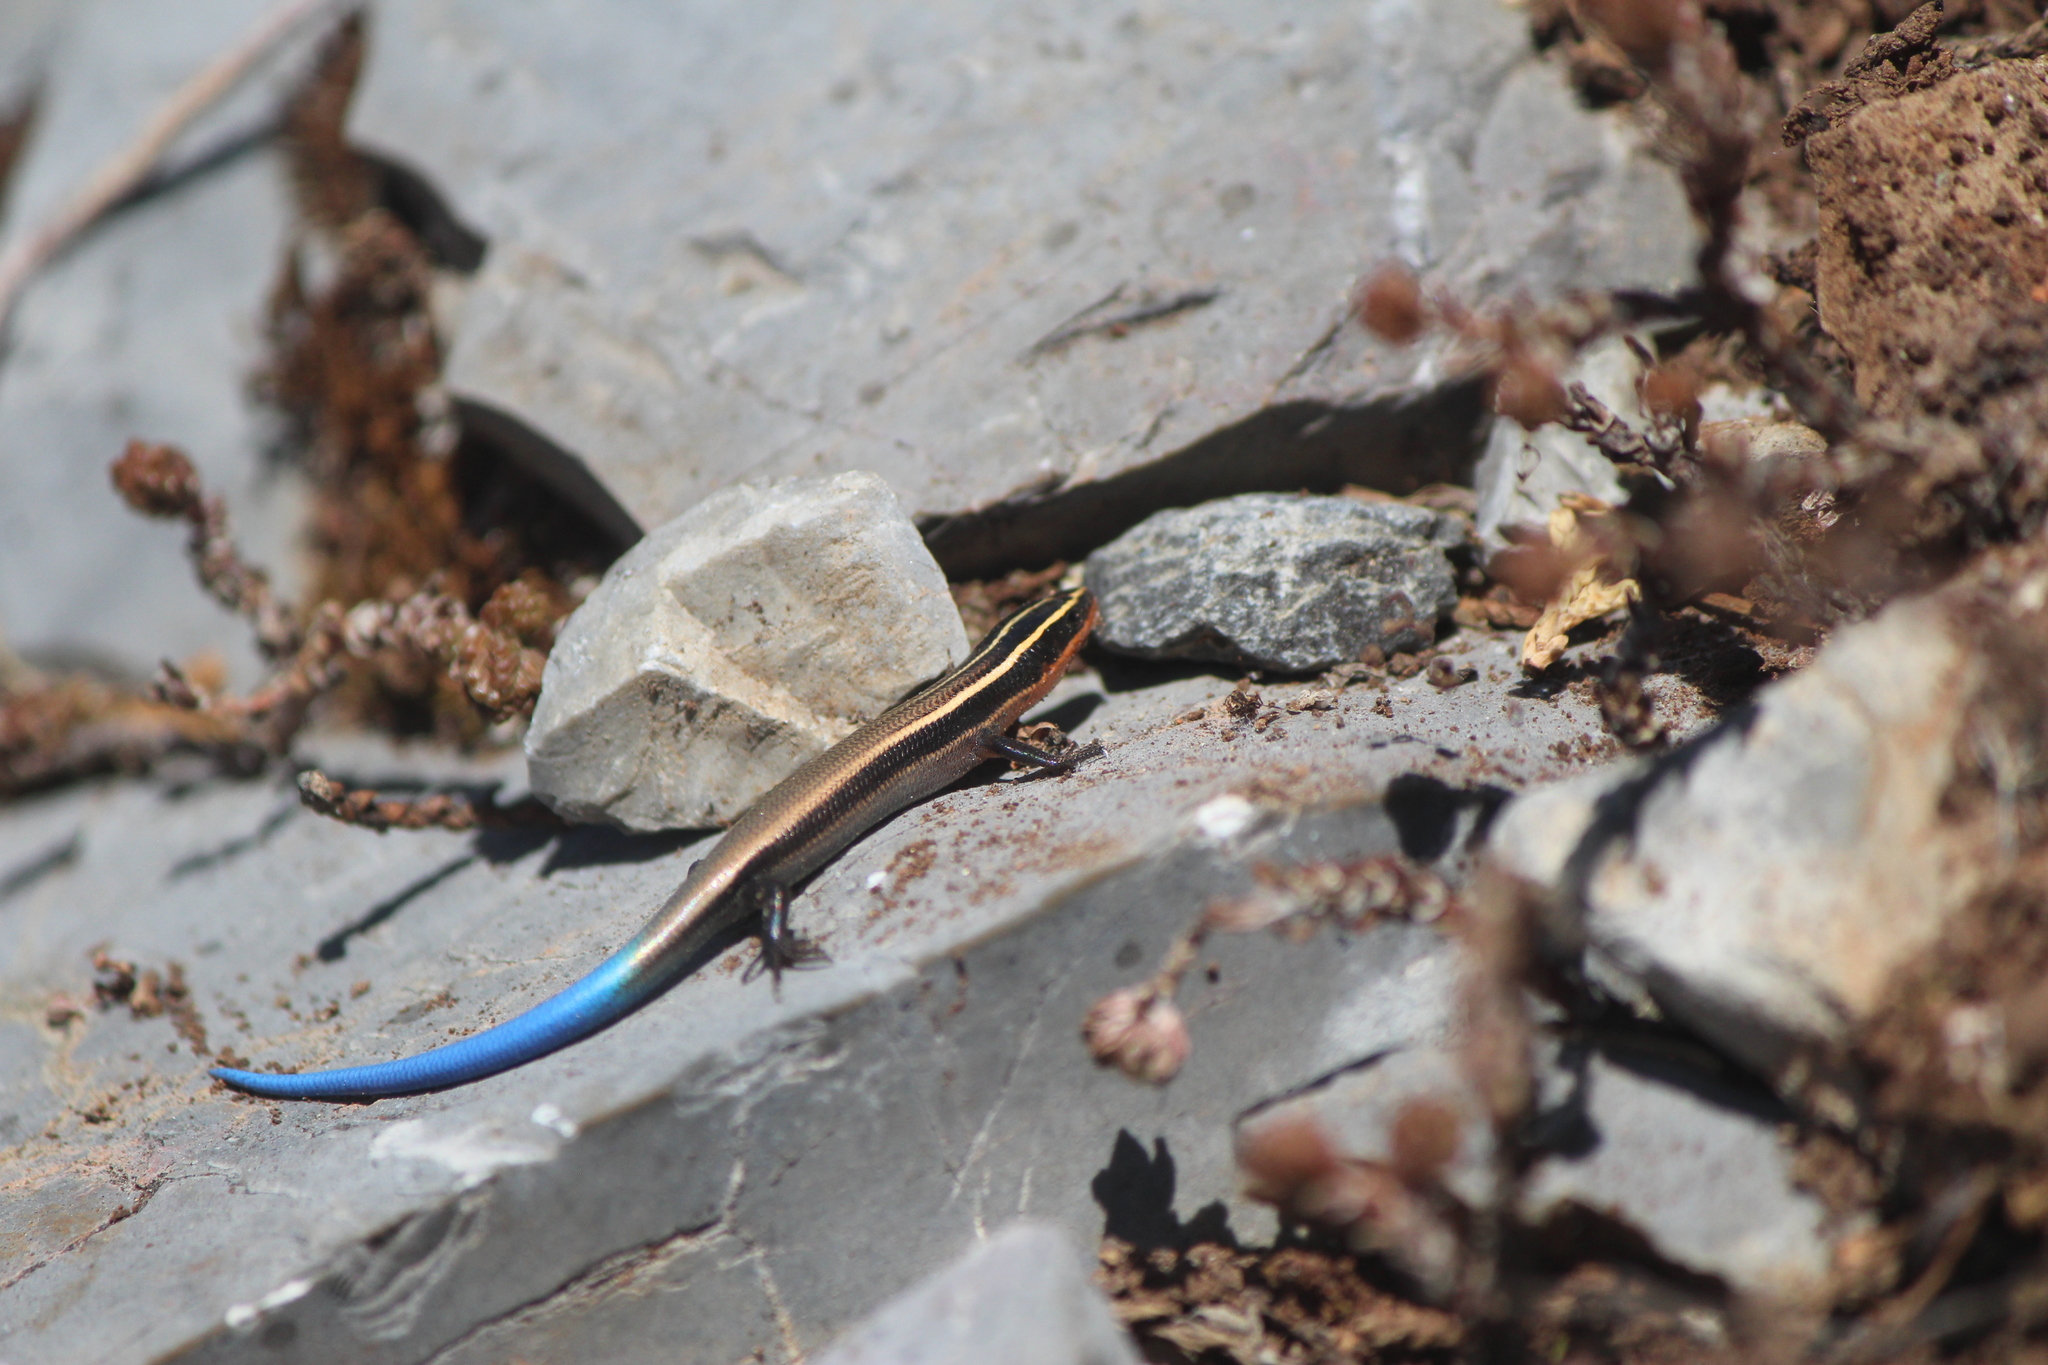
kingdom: Animalia
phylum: Chordata
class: Squamata
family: Scincidae
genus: Plestiodon
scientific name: Plestiodon lynxe
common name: Oak forest skink
